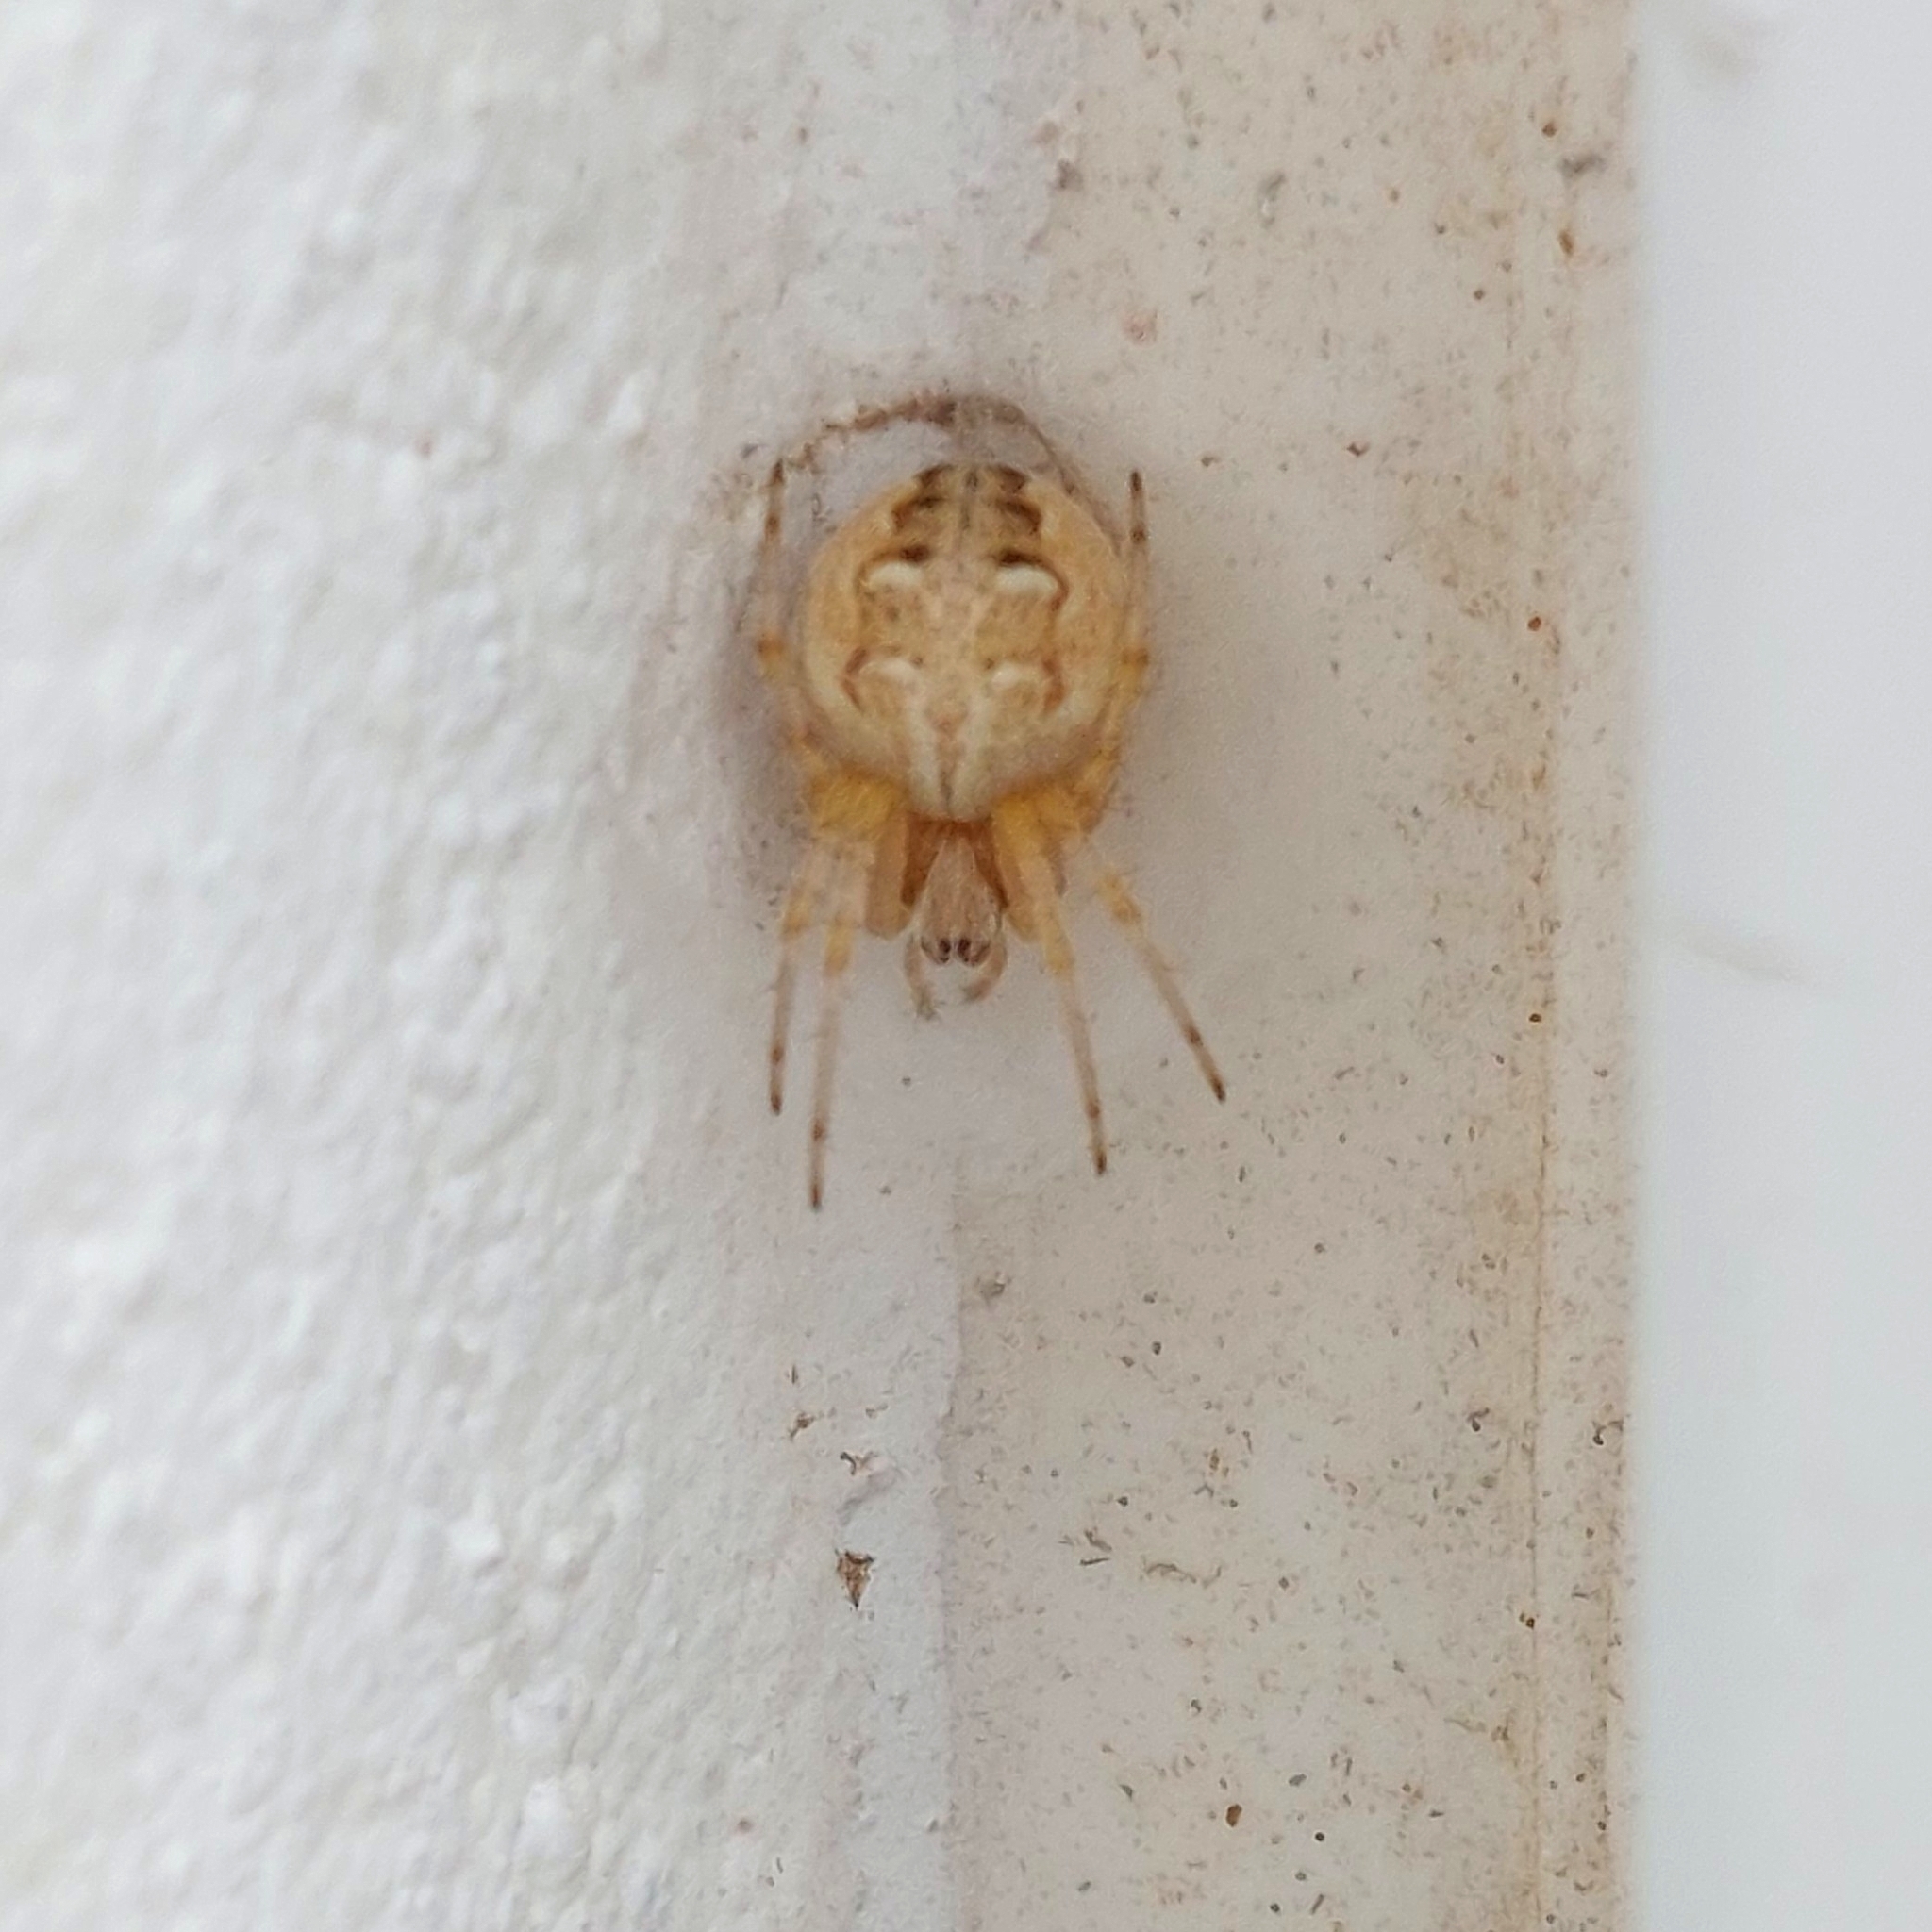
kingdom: Animalia
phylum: Arthropoda
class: Arachnida
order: Araneae
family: Araneidae
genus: Metepeira
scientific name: Metepeira
